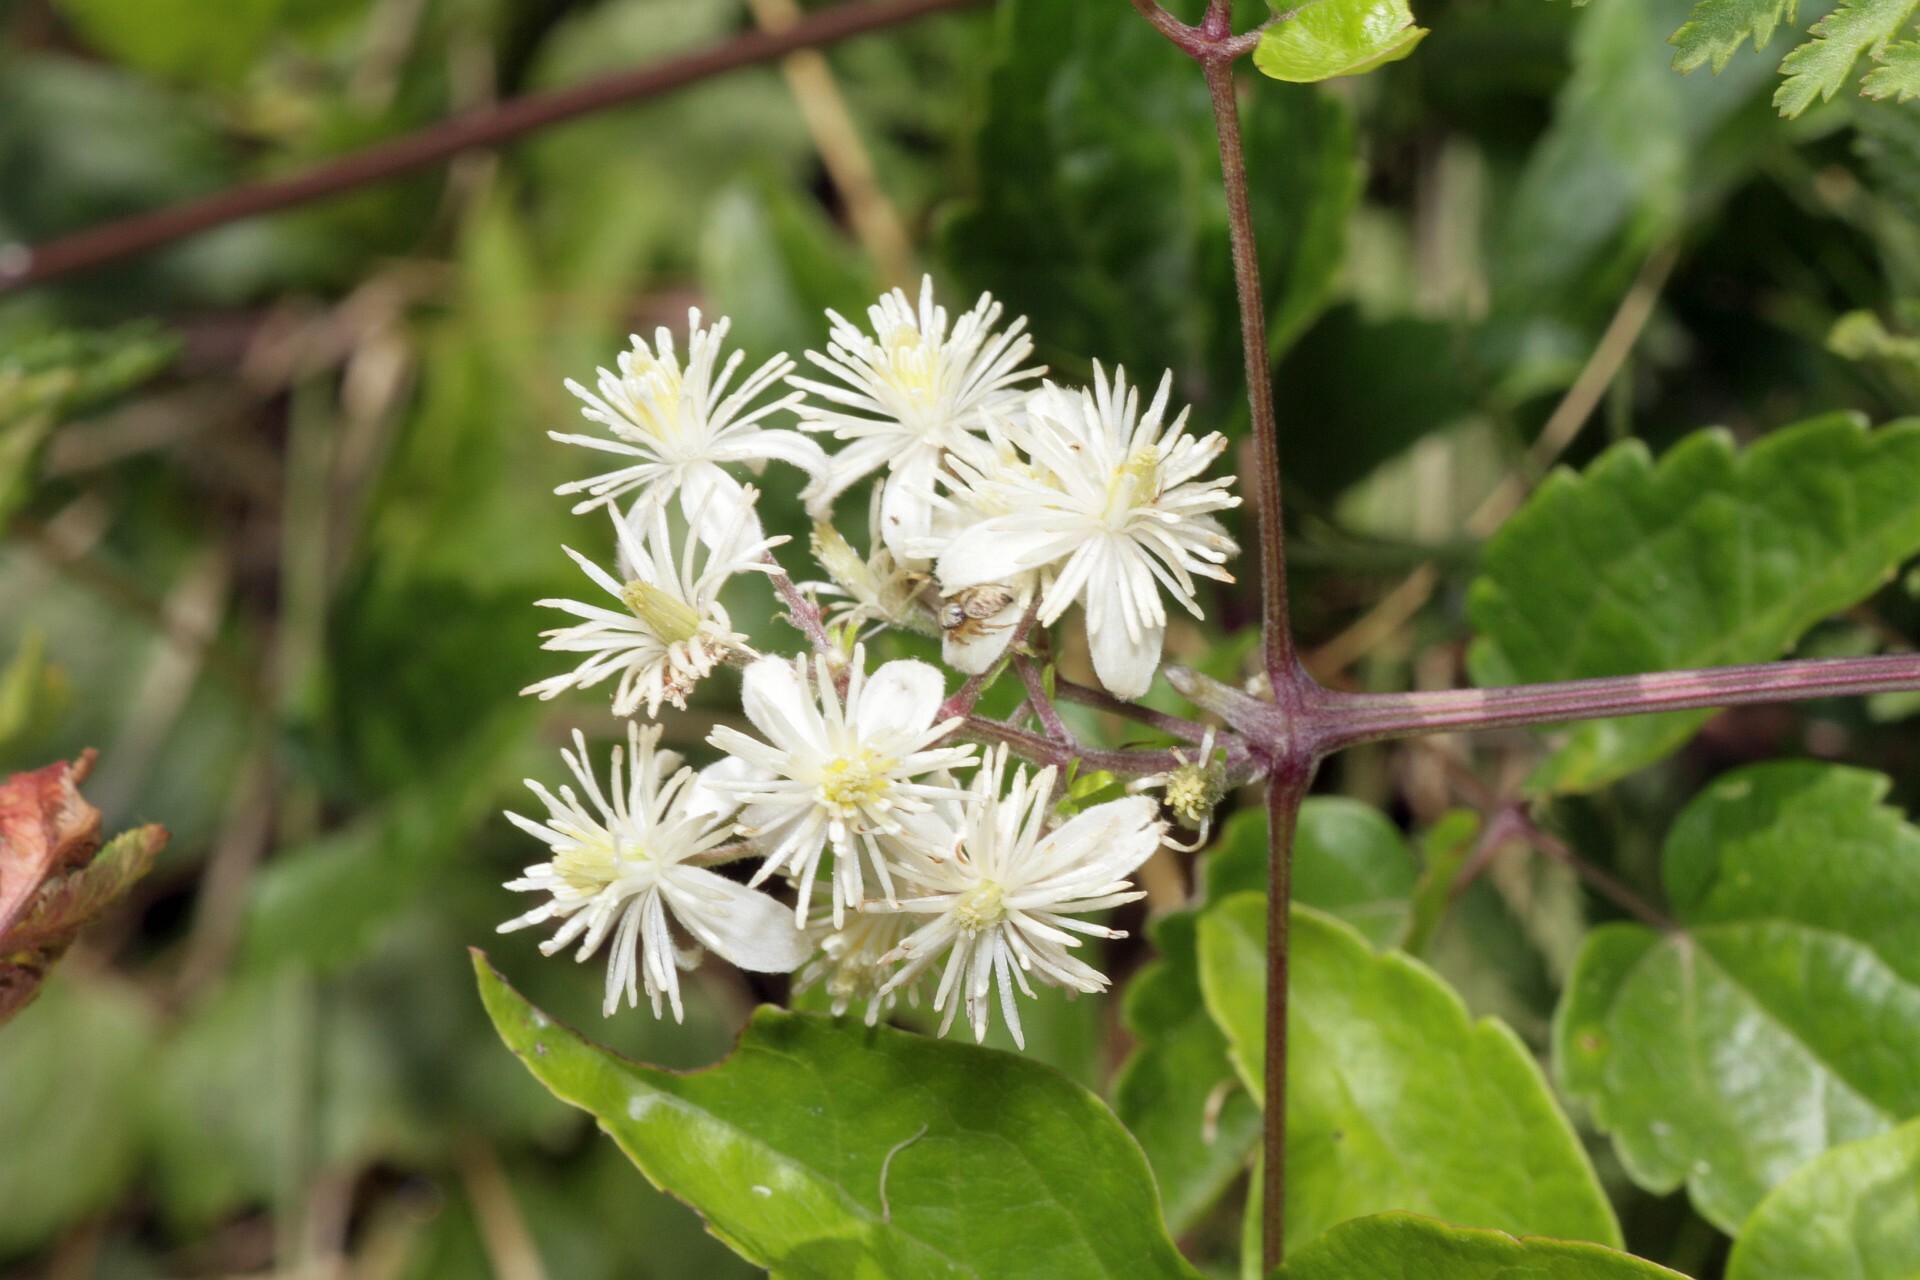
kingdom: Plantae
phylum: Tracheophyta
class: Magnoliopsida
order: Ranunculales
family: Ranunculaceae
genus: Clematis
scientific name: Clematis vitalba
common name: Evergreen clematis
